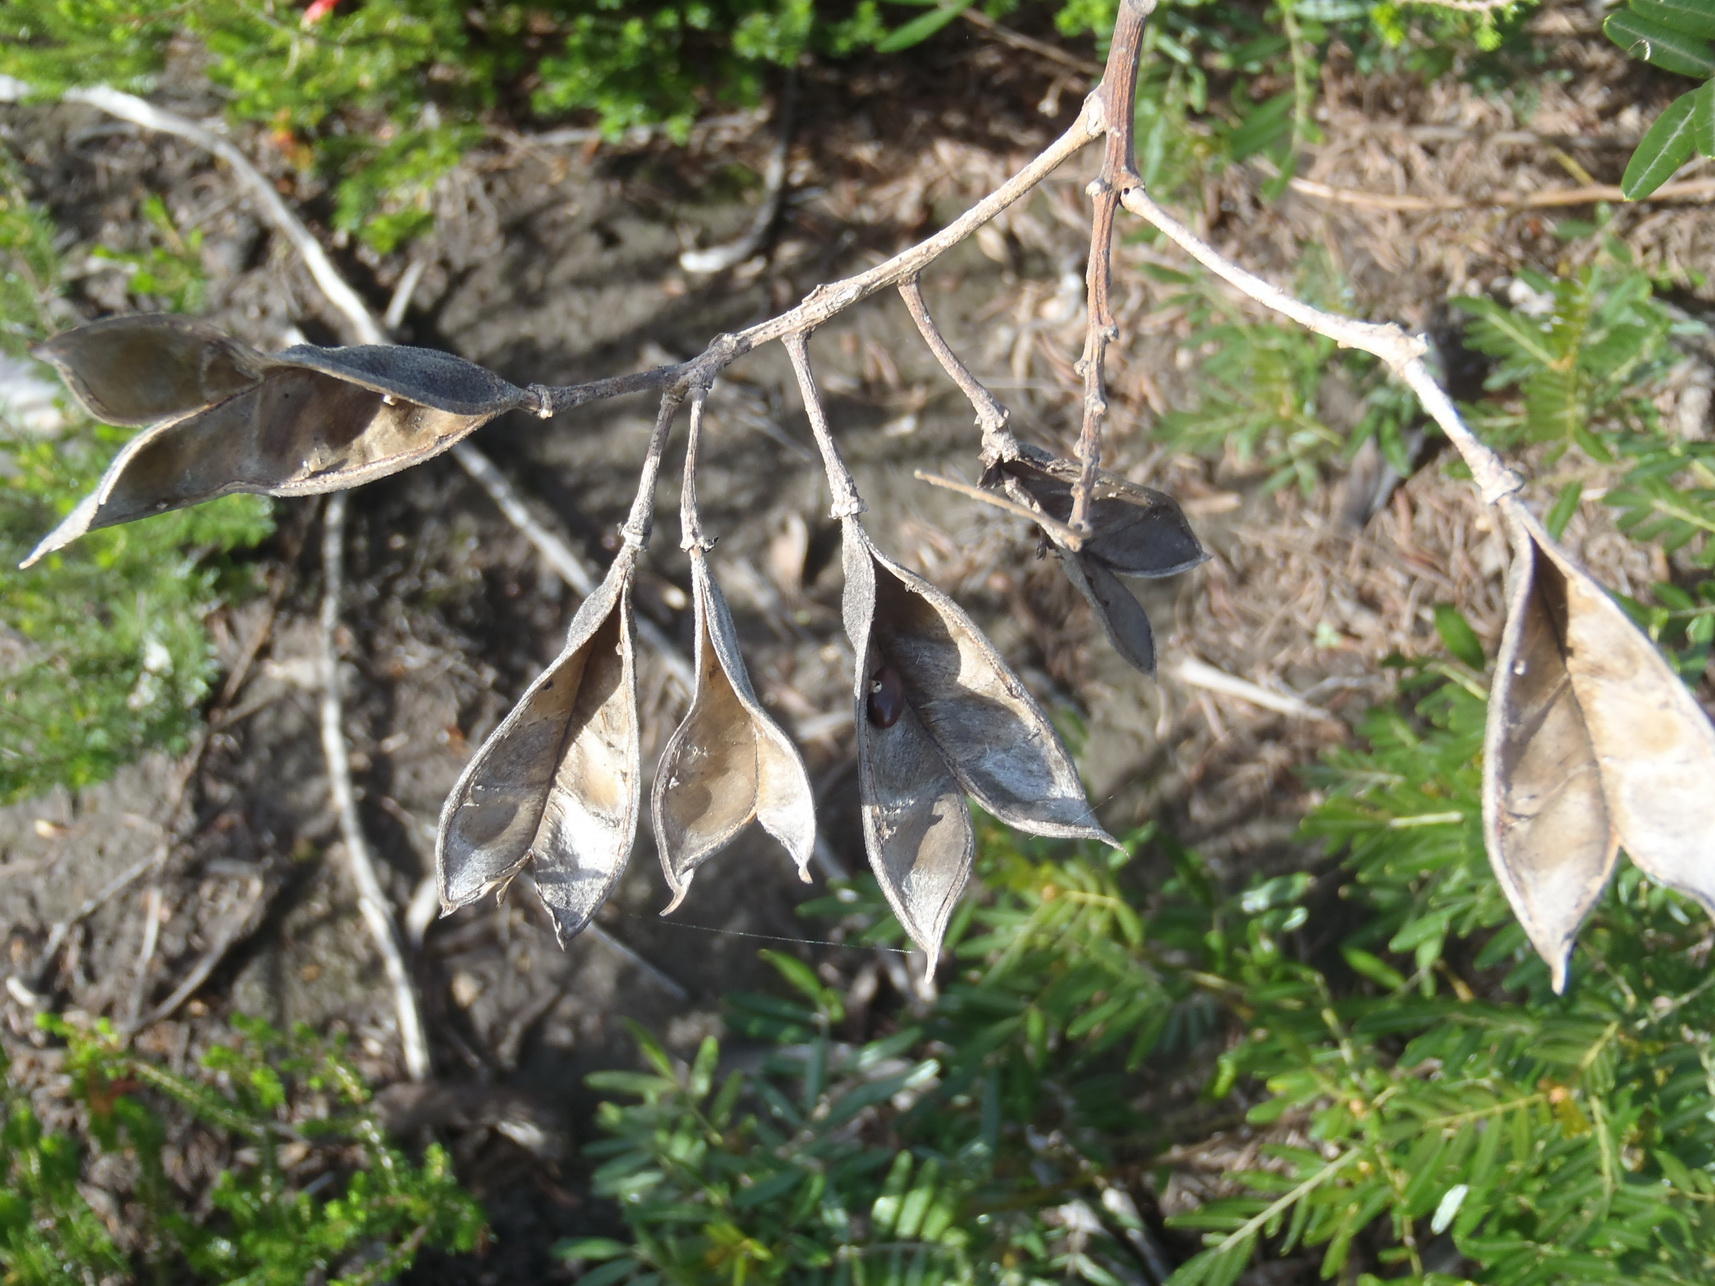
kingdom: Plantae
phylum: Tracheophyta
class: Magnoliopsida
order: Fabales
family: Fabaceae
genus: Virgilia
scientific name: Virgilia divaricata
